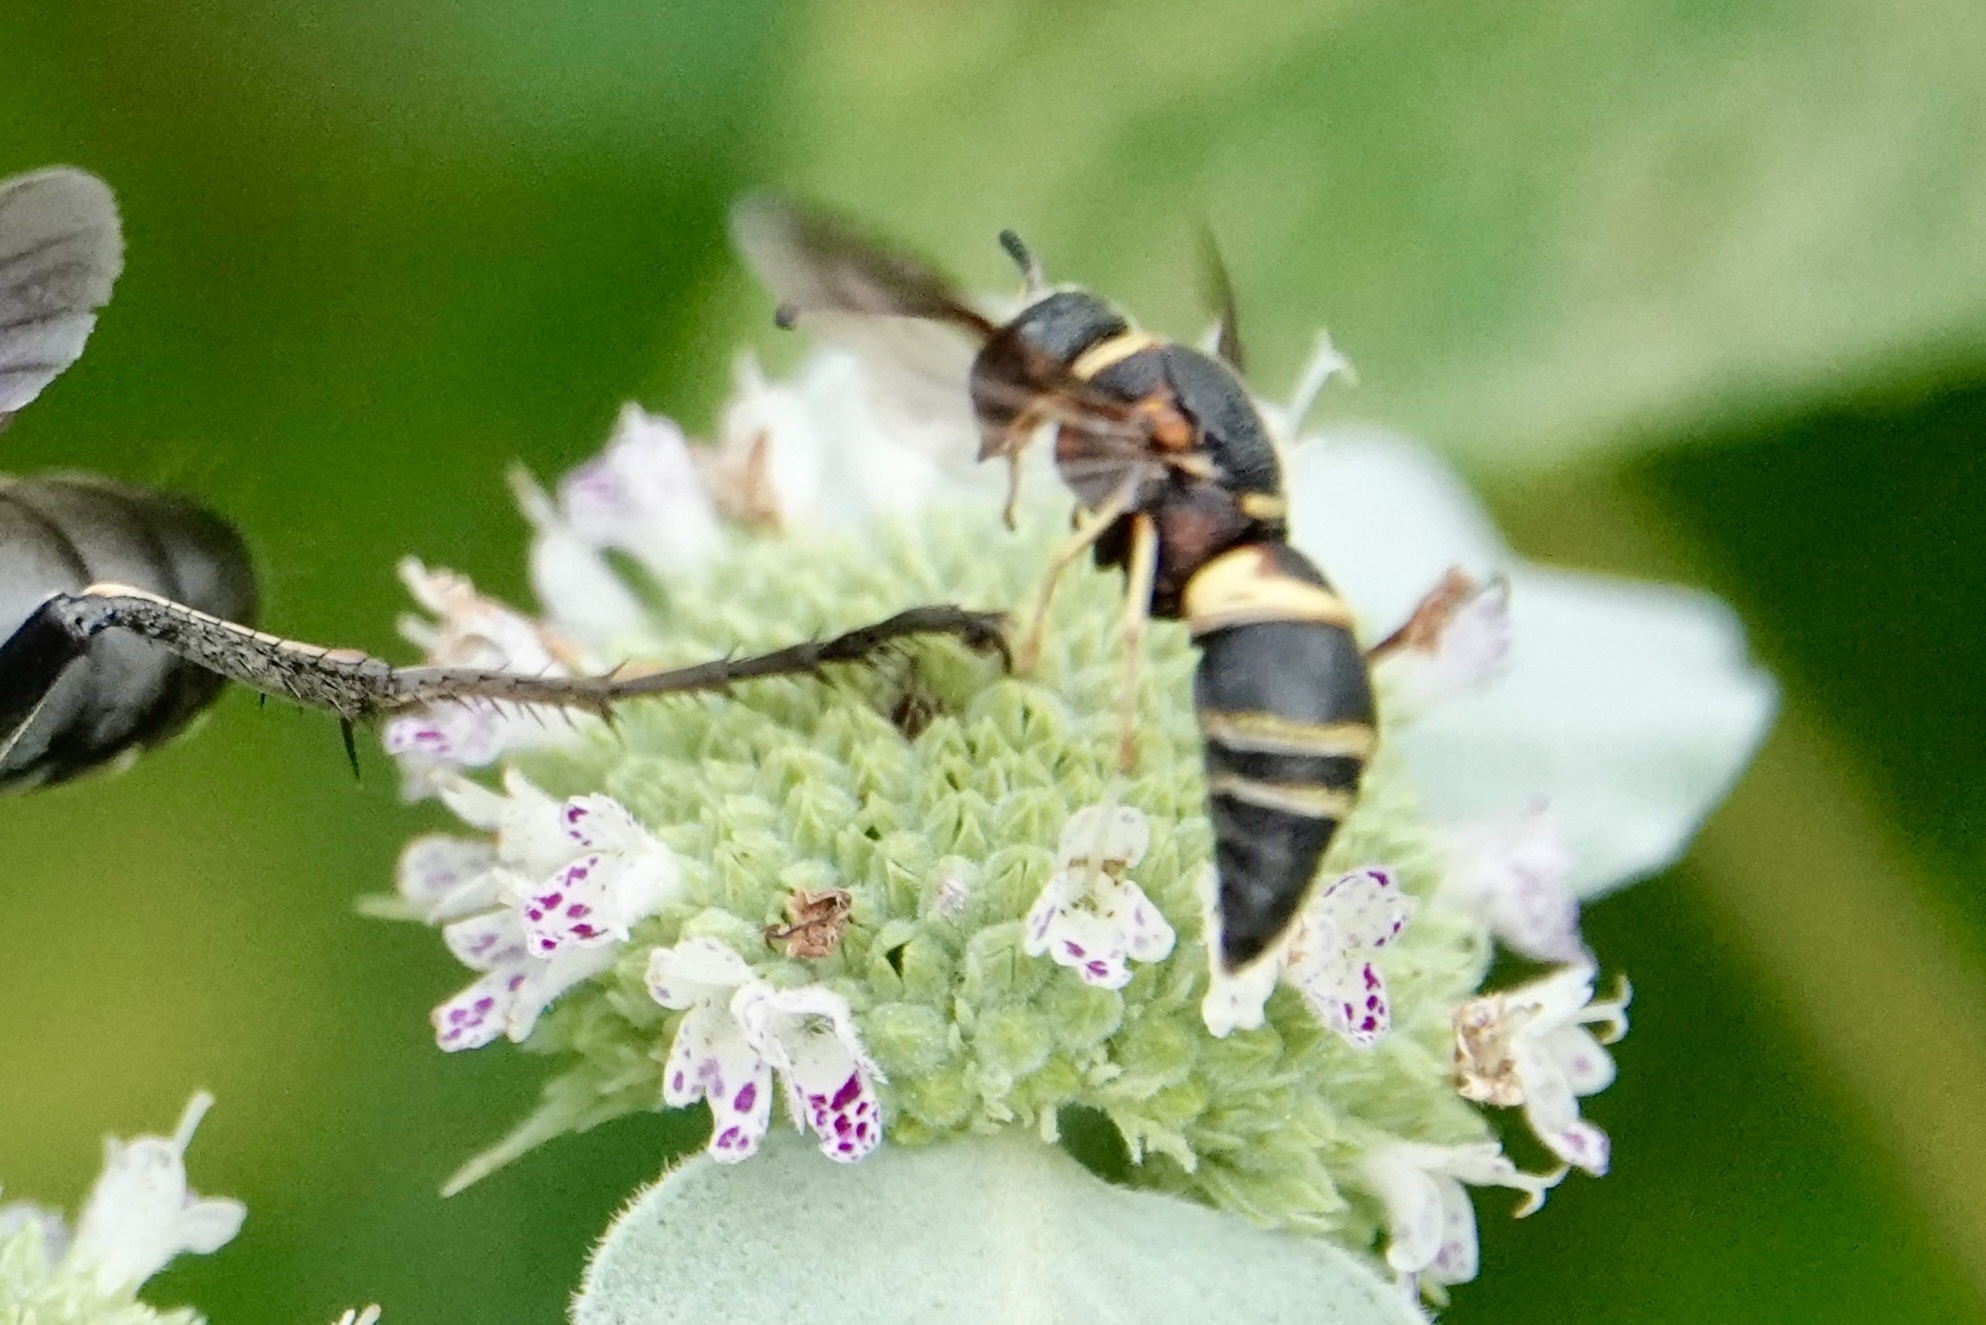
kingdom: Animalia
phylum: Arthropoda
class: Insecta
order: Hymenoptera
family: Eumenidae
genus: Euodynerus
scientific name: Euodynerus hidalgo
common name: Wasp
